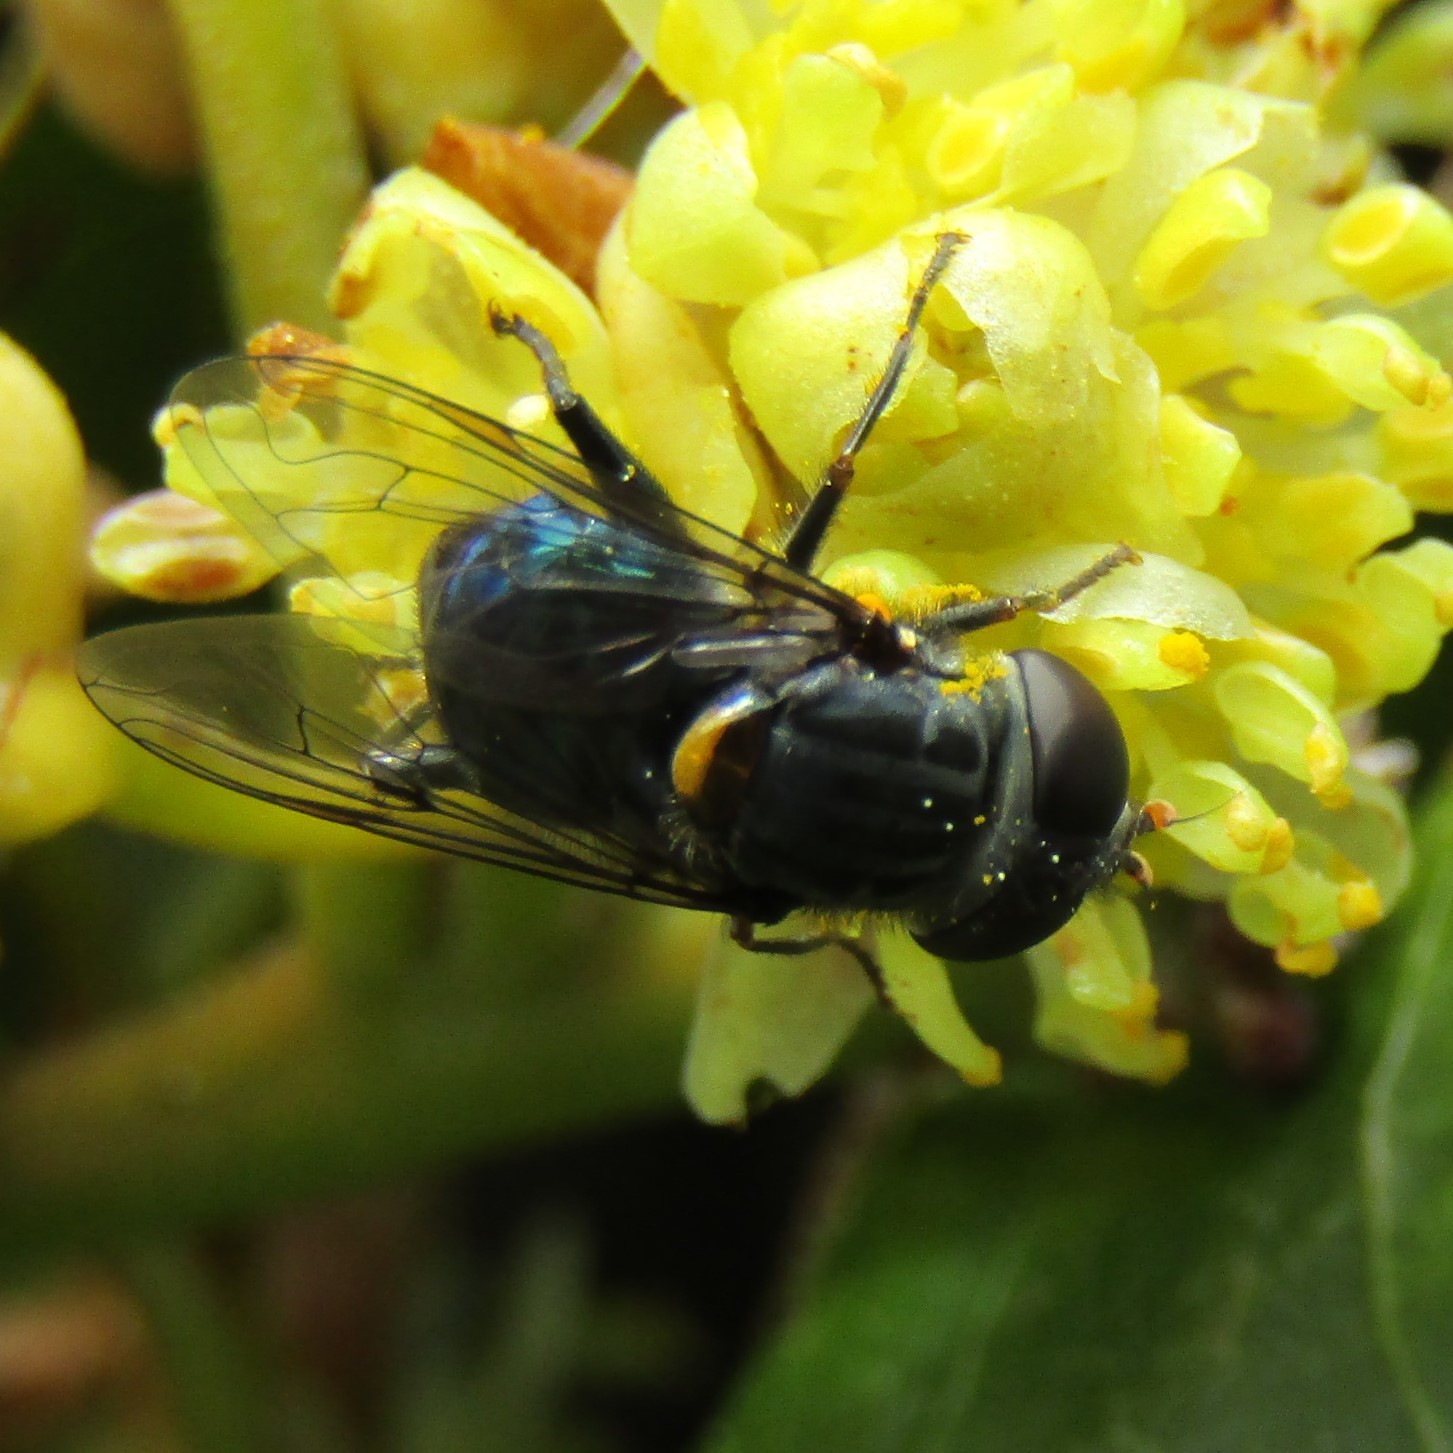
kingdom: Animalia
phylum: Arthropoda
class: Insecta
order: Diptera
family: Syrphidae
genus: Helophilus
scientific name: Helophilus hochstetteri
